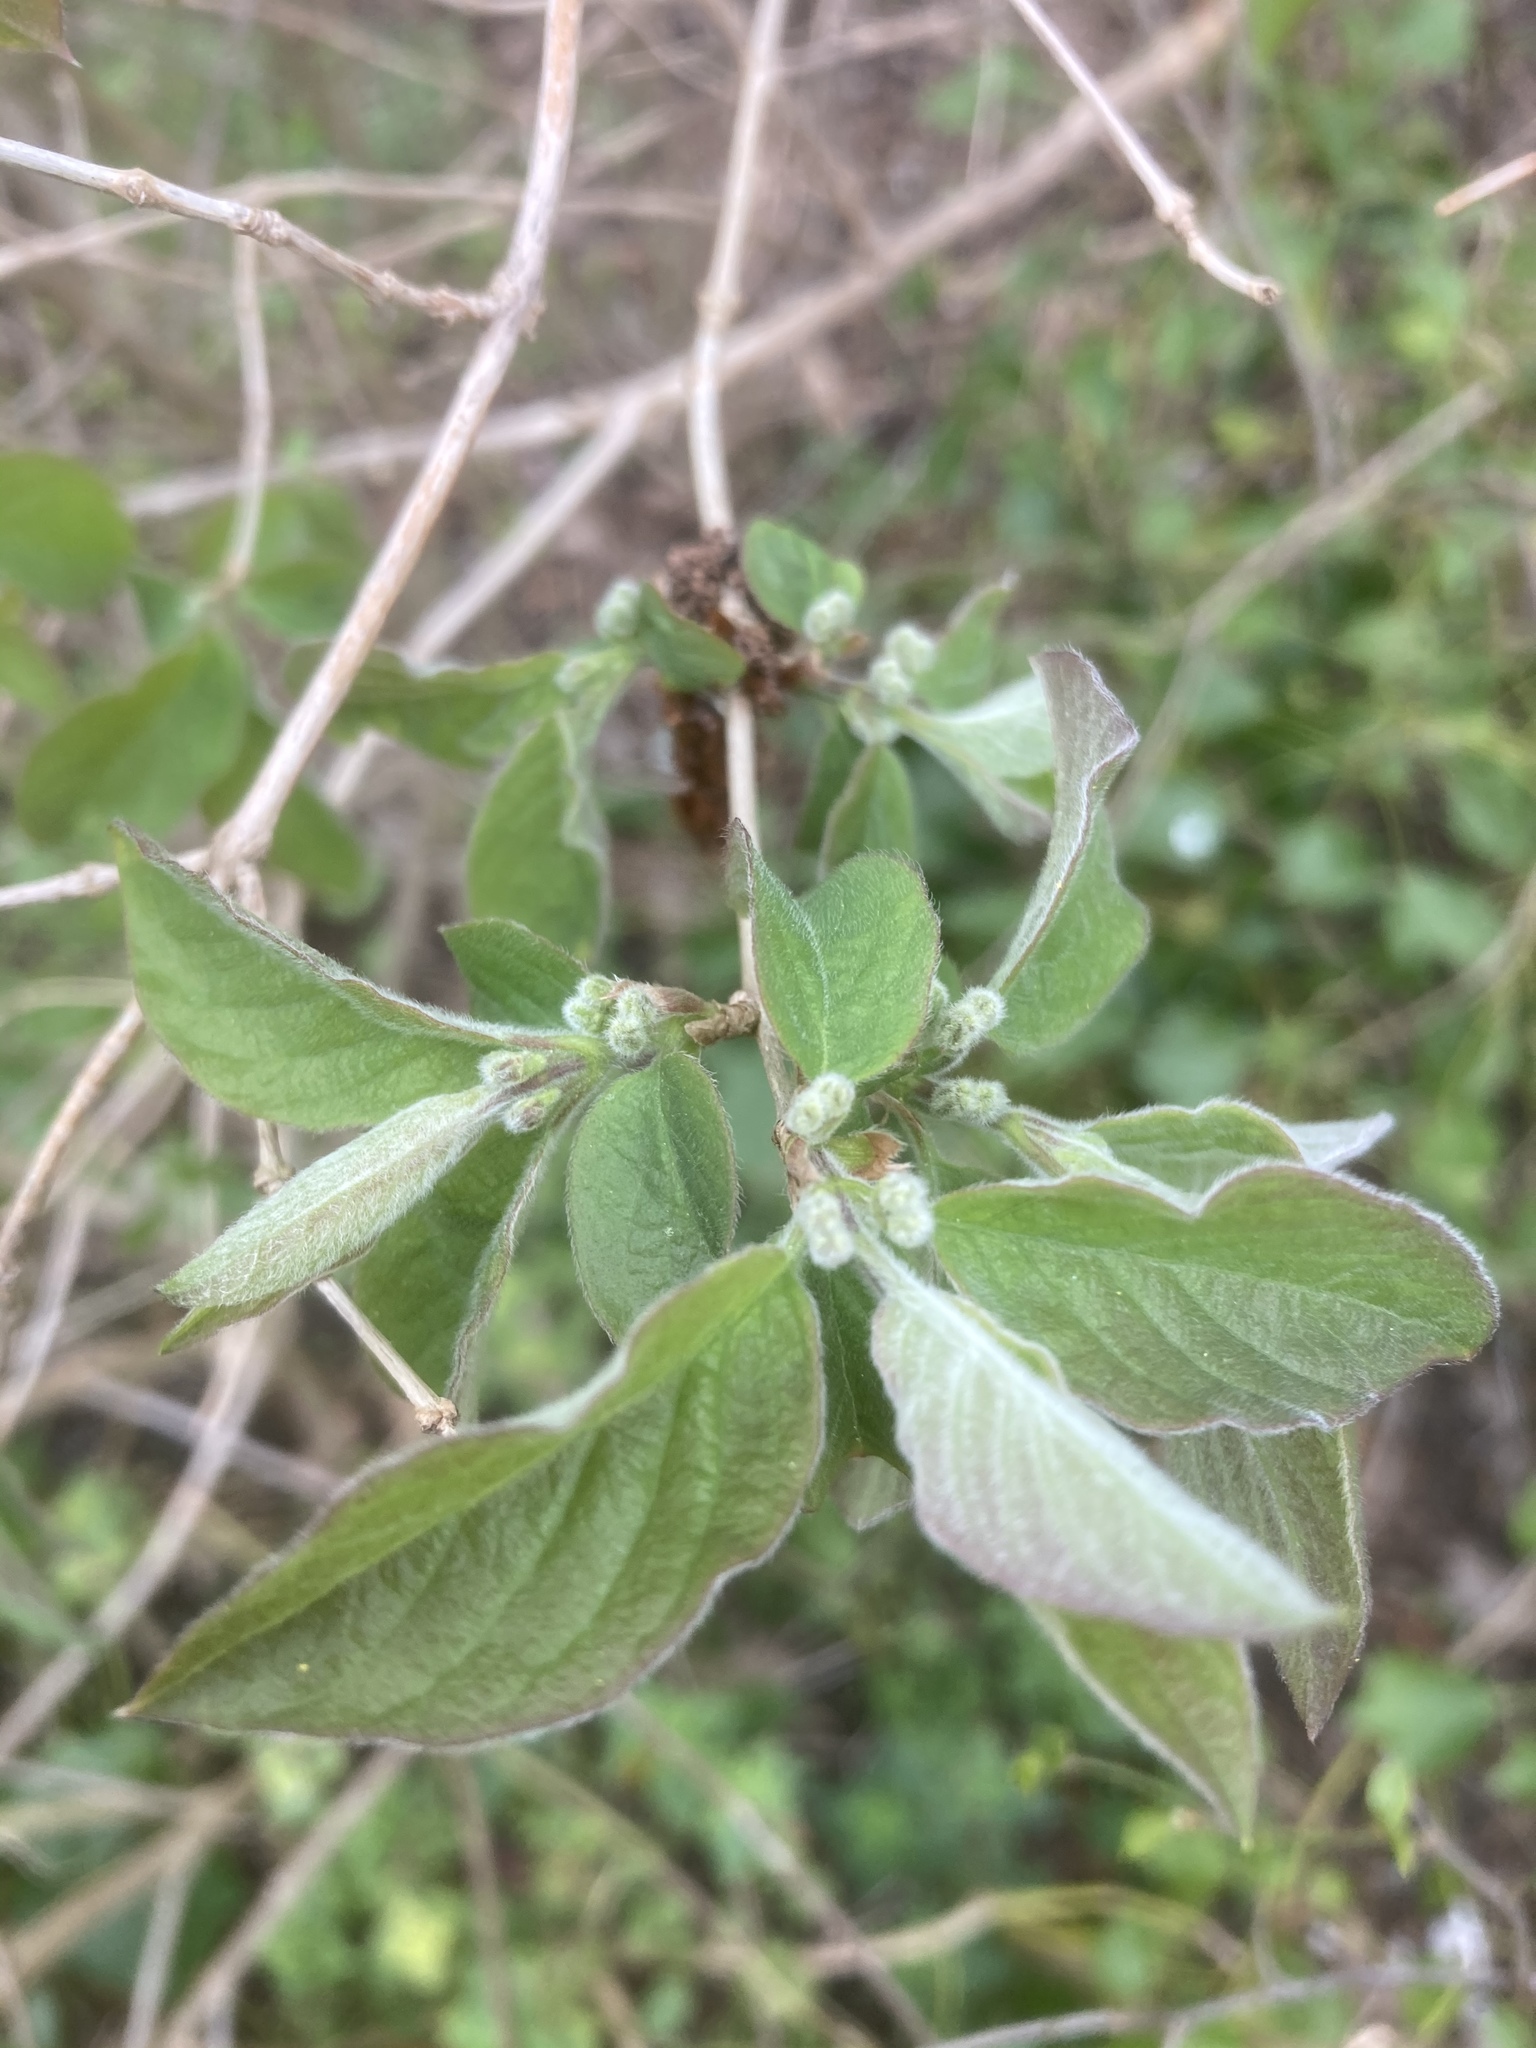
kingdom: Plantae
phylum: Tracheophyta
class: Magnoliopsida
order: Dipsacales
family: Caprifoliaceae
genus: Lonicera
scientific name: Lonicera xylosteum
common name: Fly honeysuckle
